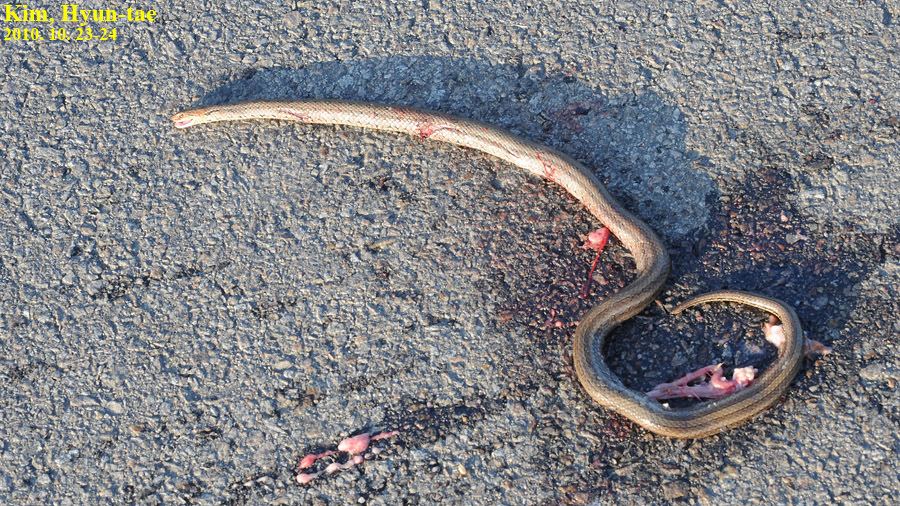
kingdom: Animalia
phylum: Chordata
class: Squamata
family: Colubridae
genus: Elaphe
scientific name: Elaphe dione
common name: Dione ratsnake
